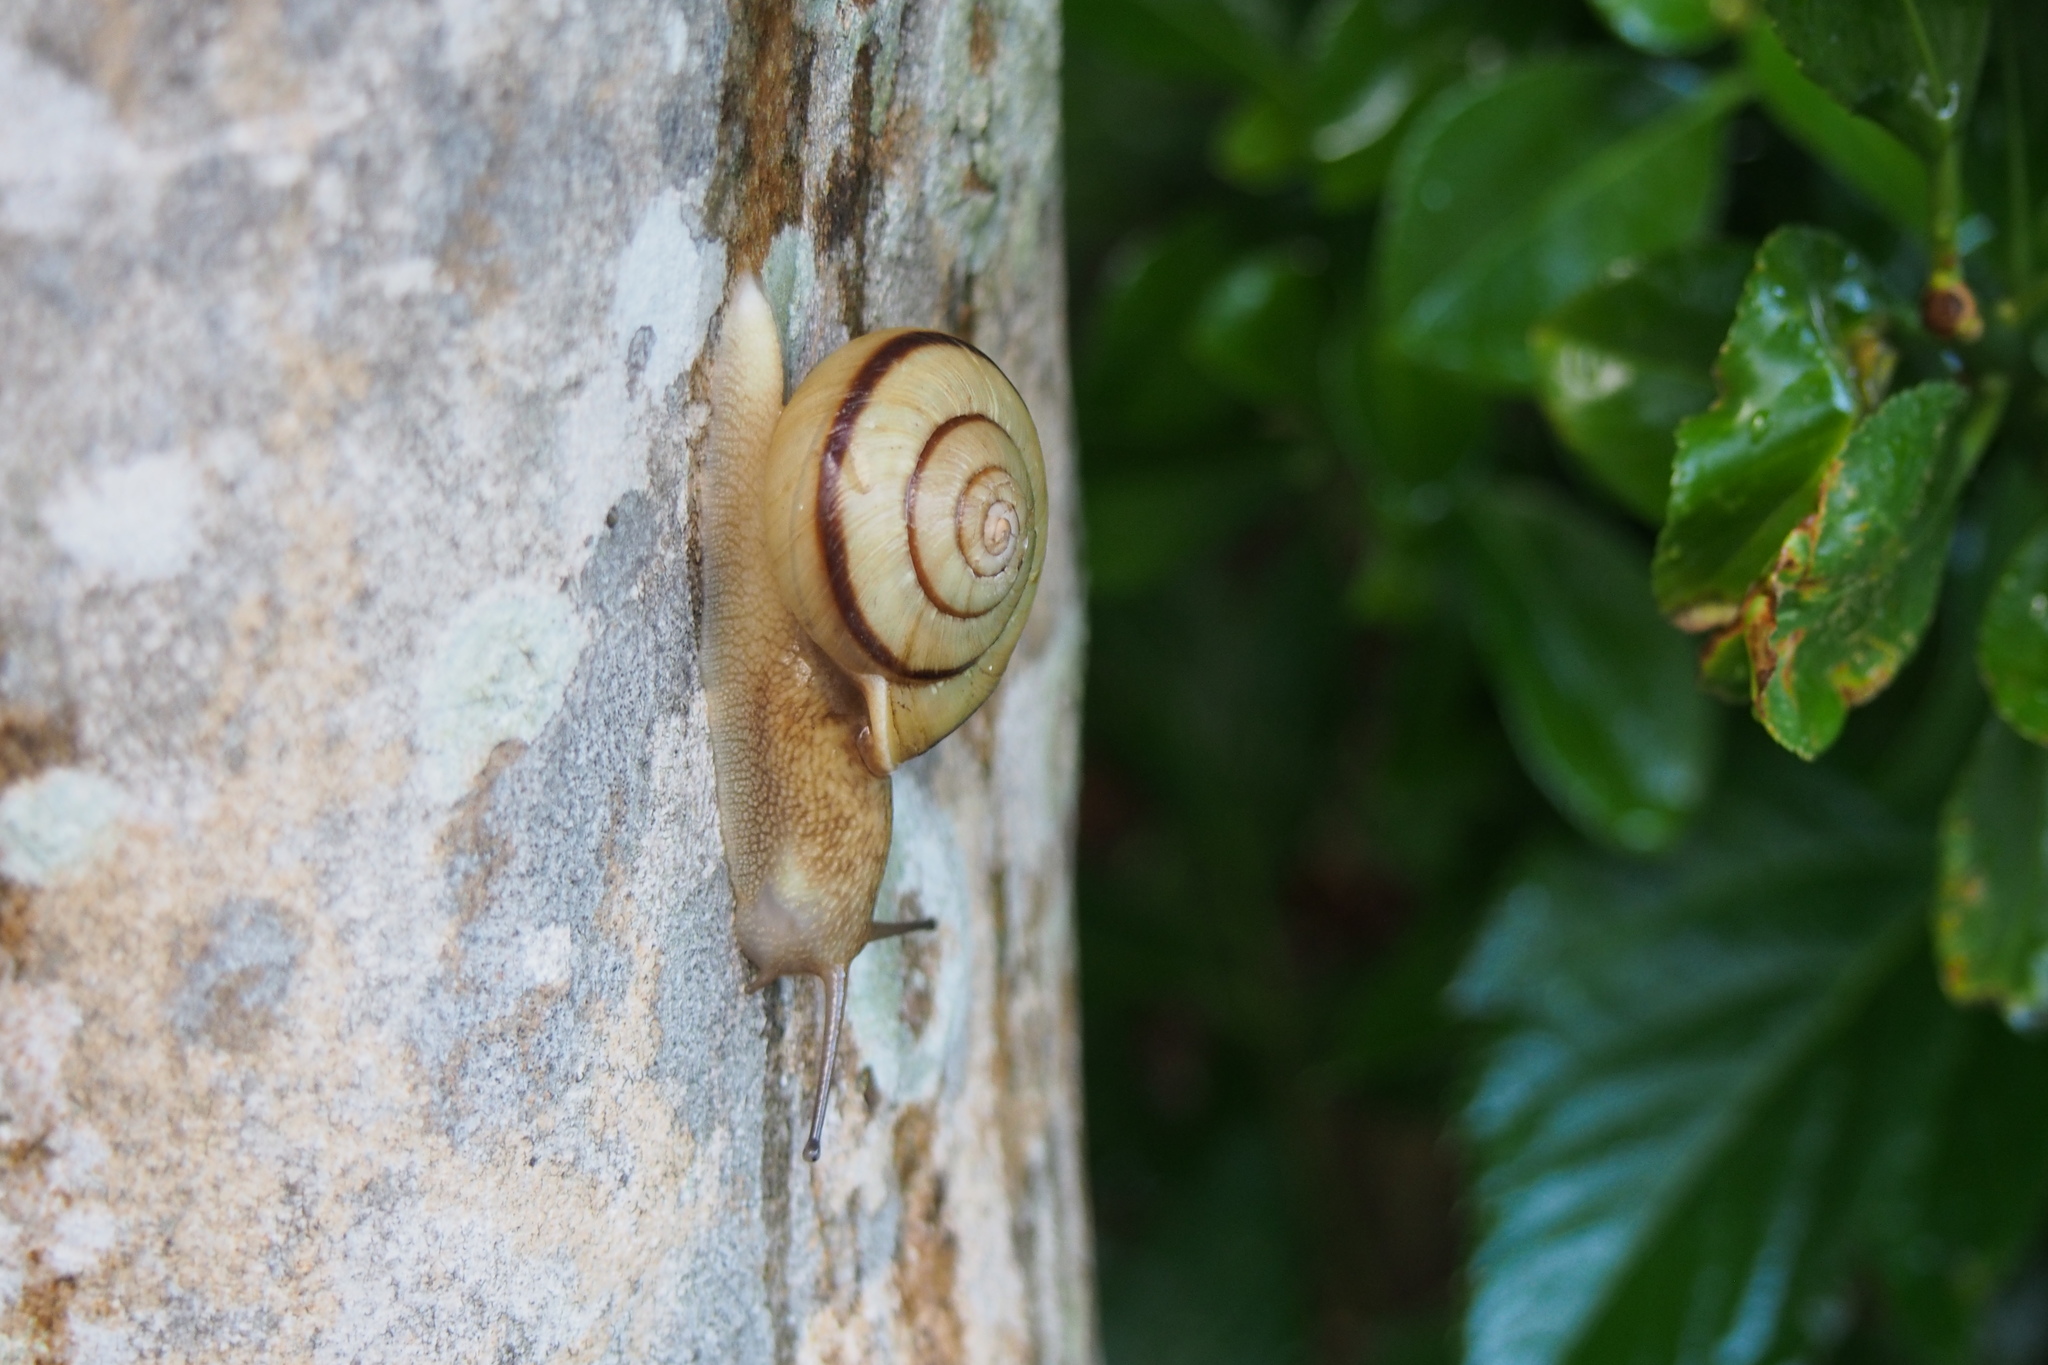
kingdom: Animalia
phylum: Mollusca
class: Gastropoda
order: Stylommatophora
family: Camaenidae
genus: Euhadra
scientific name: Euhadra sigeonis
